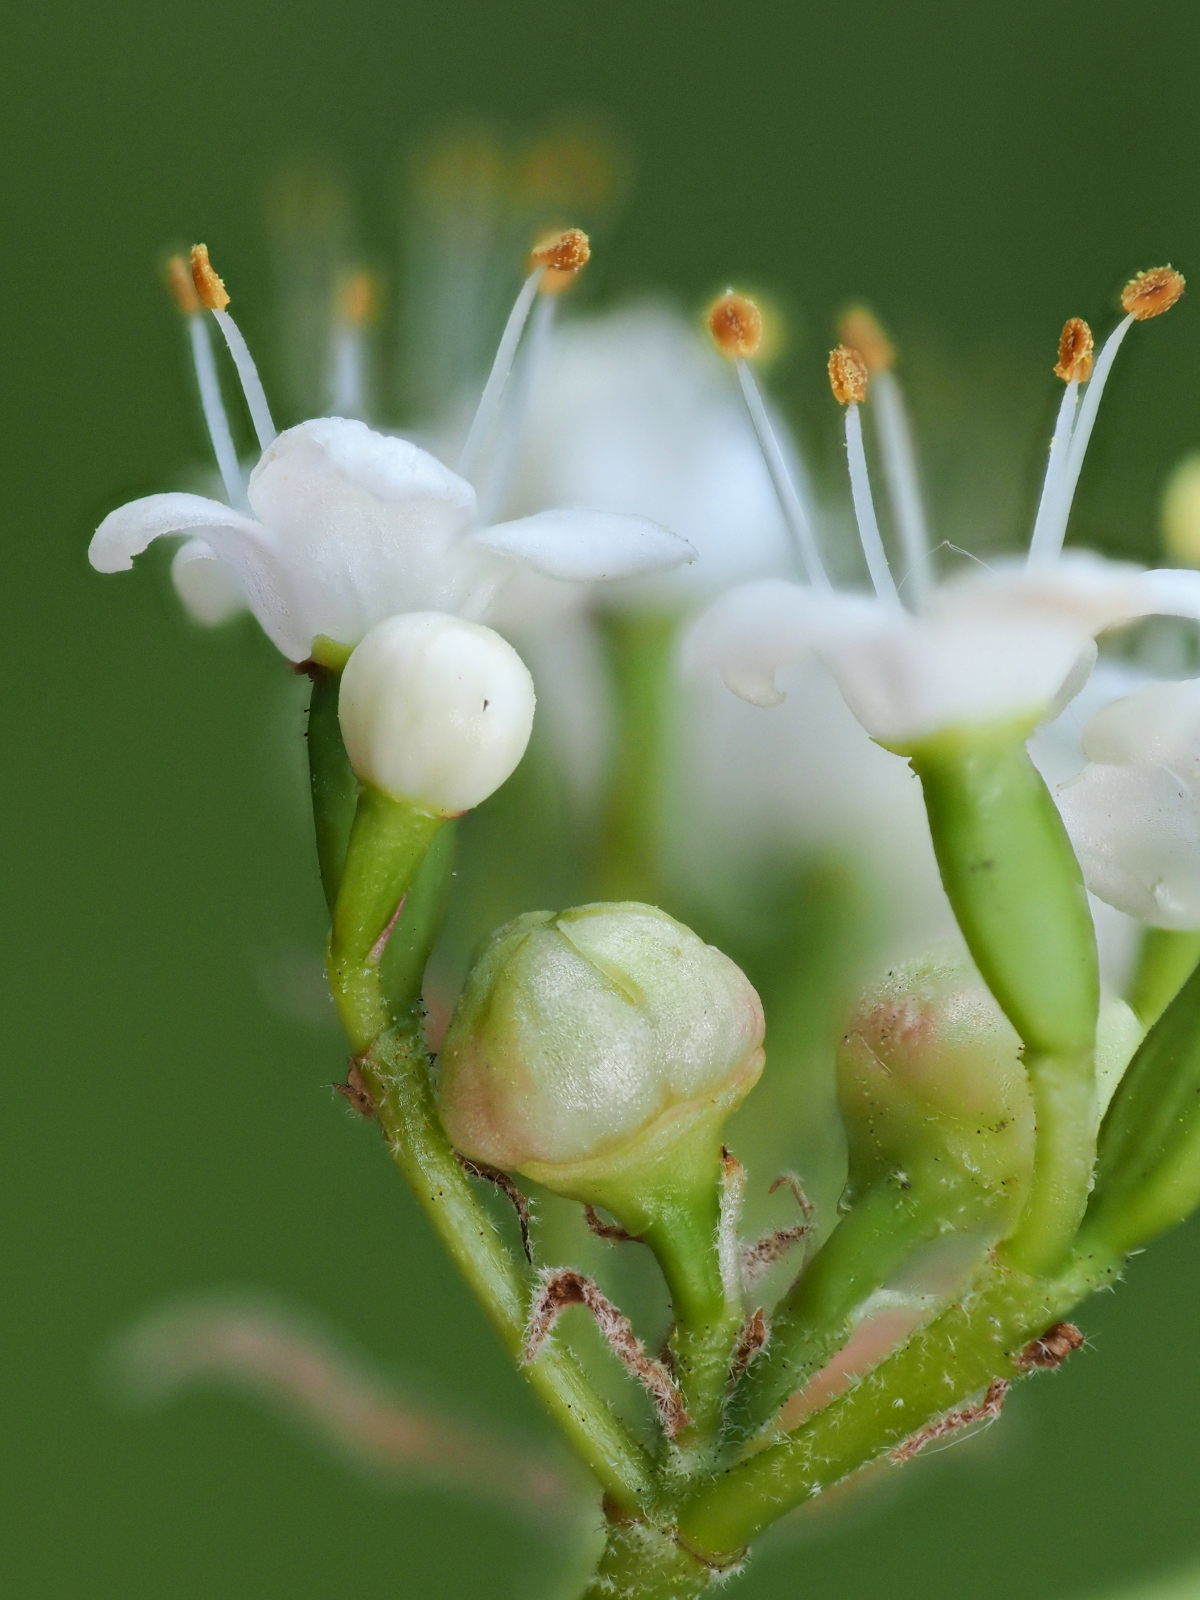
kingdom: Animalia
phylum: Arthropoda
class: Insecta
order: Diptera
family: Cecidomyiidae
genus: Contarinia
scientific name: Contarinia viburnorum
